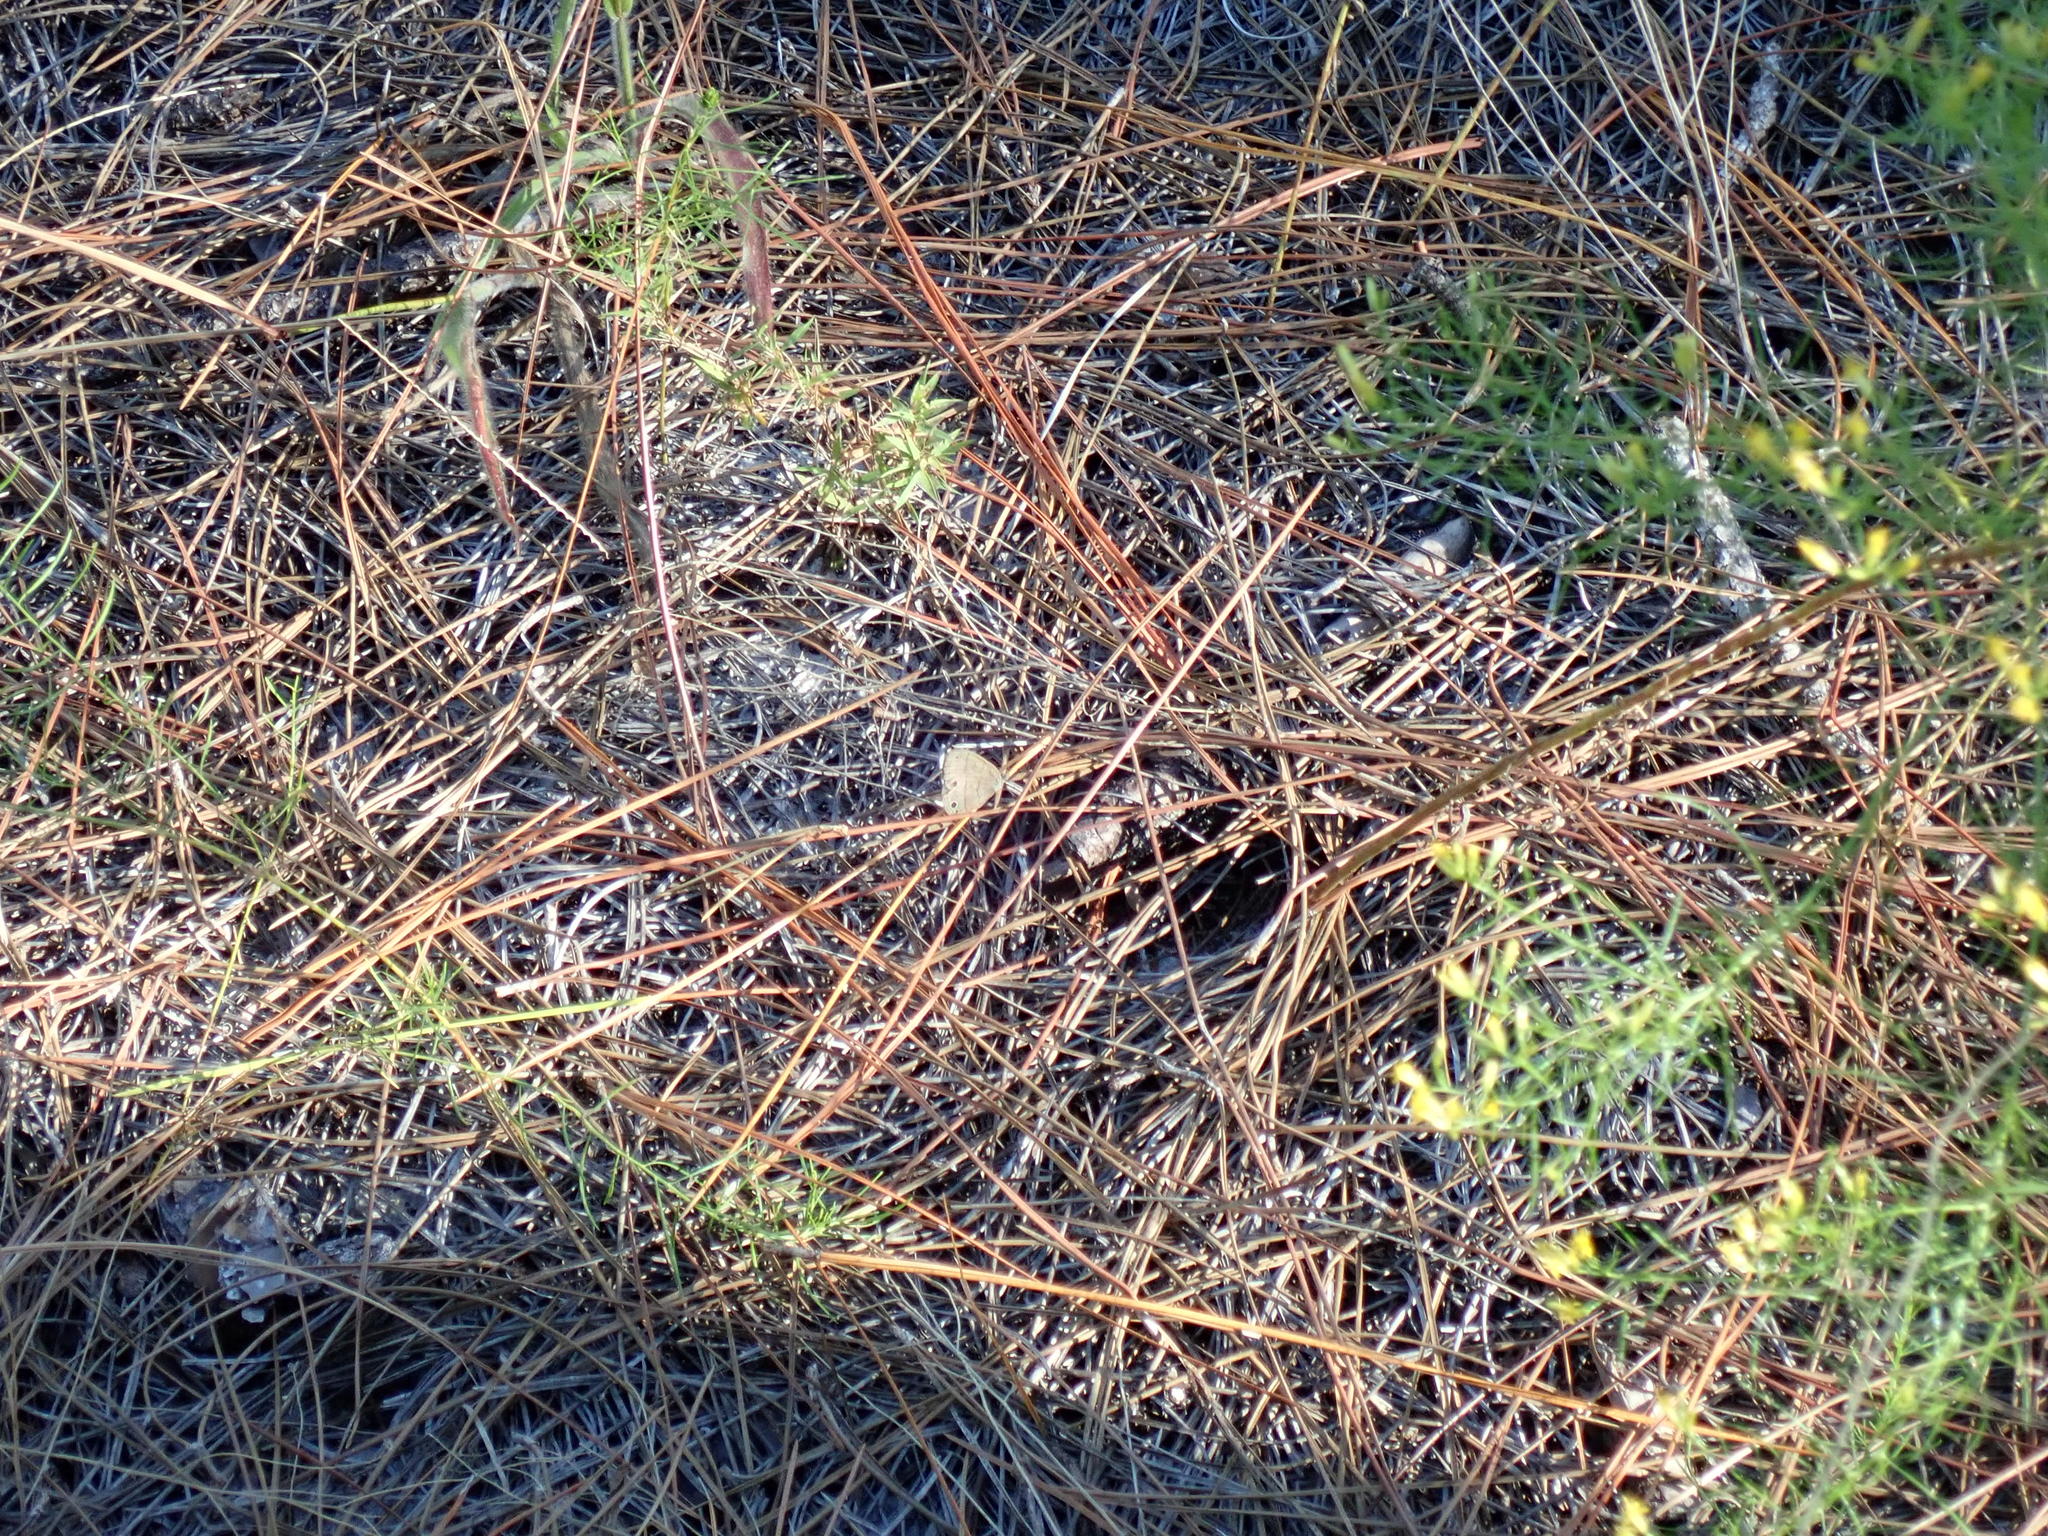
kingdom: Animalia
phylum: Arthropoda
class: Insecta
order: Lepidoptera
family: Nymphalidae
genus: Hermeuptychia
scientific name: Hermeuptychia hermes
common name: Hermes satyr
